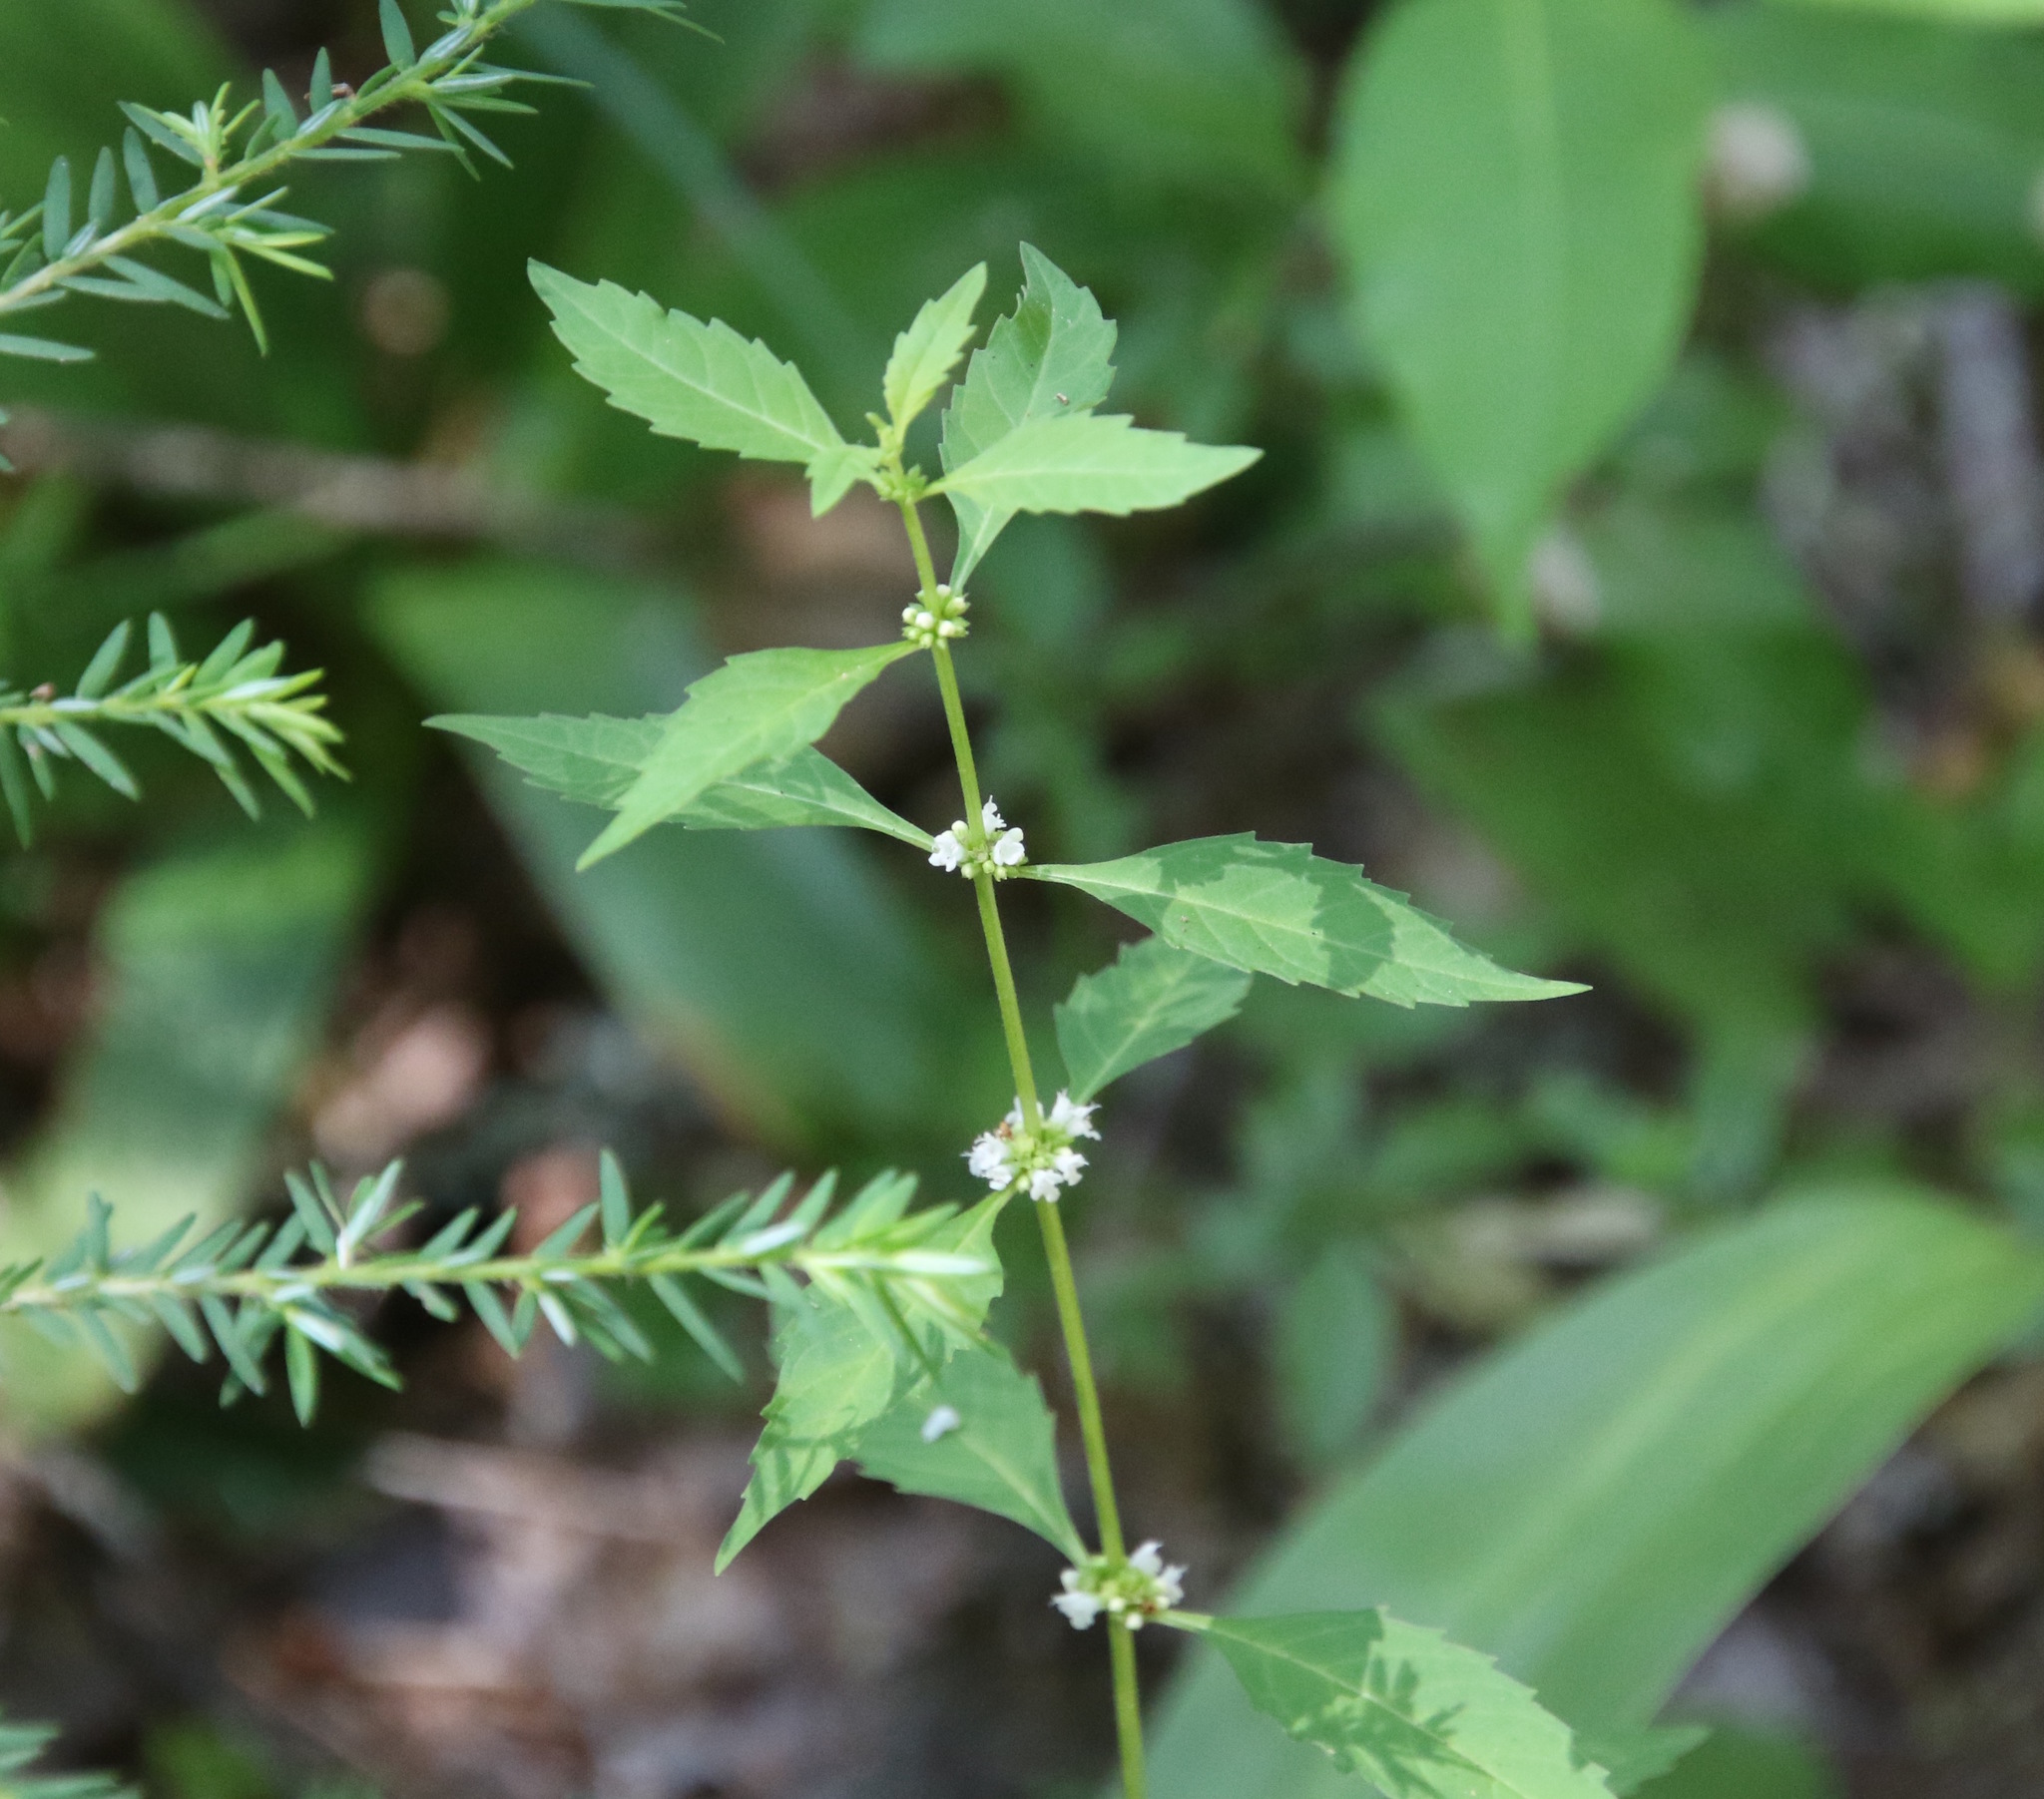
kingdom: Plantae
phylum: Tracheophyta
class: Magnoliopsida
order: Lamiales
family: Lamiaceae
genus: Lycopus
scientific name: Lycopus uniflorus
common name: Northern bugleweed
